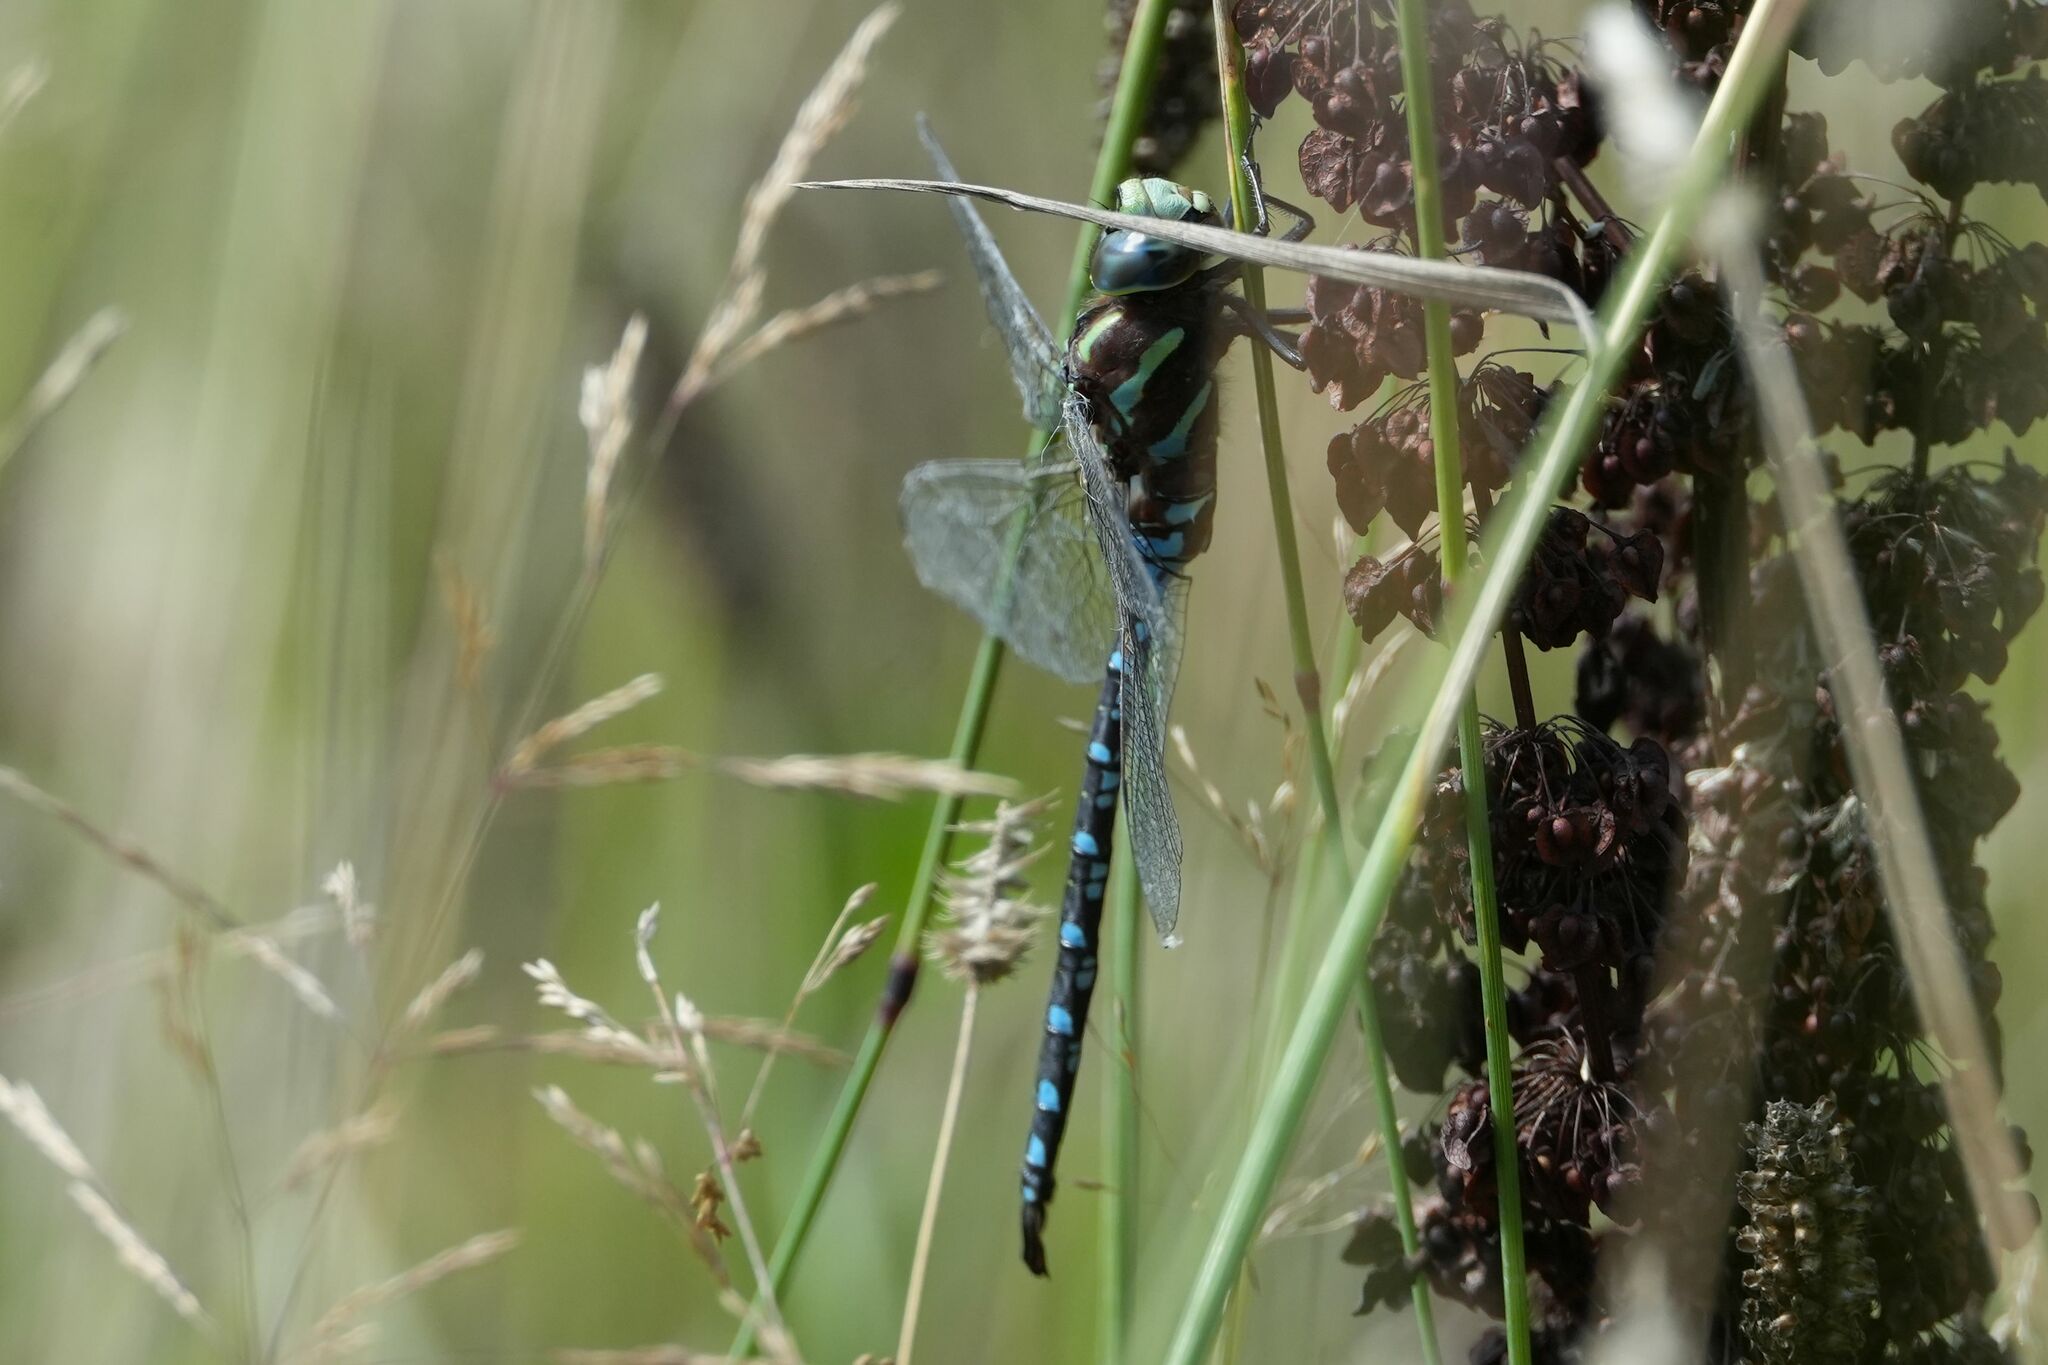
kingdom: Animalia
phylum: Arthropoda
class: Insecta
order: Odonata
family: Aeshnidae
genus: Aeshna
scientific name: Aeshna constricta
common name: Lance-tipped darner
